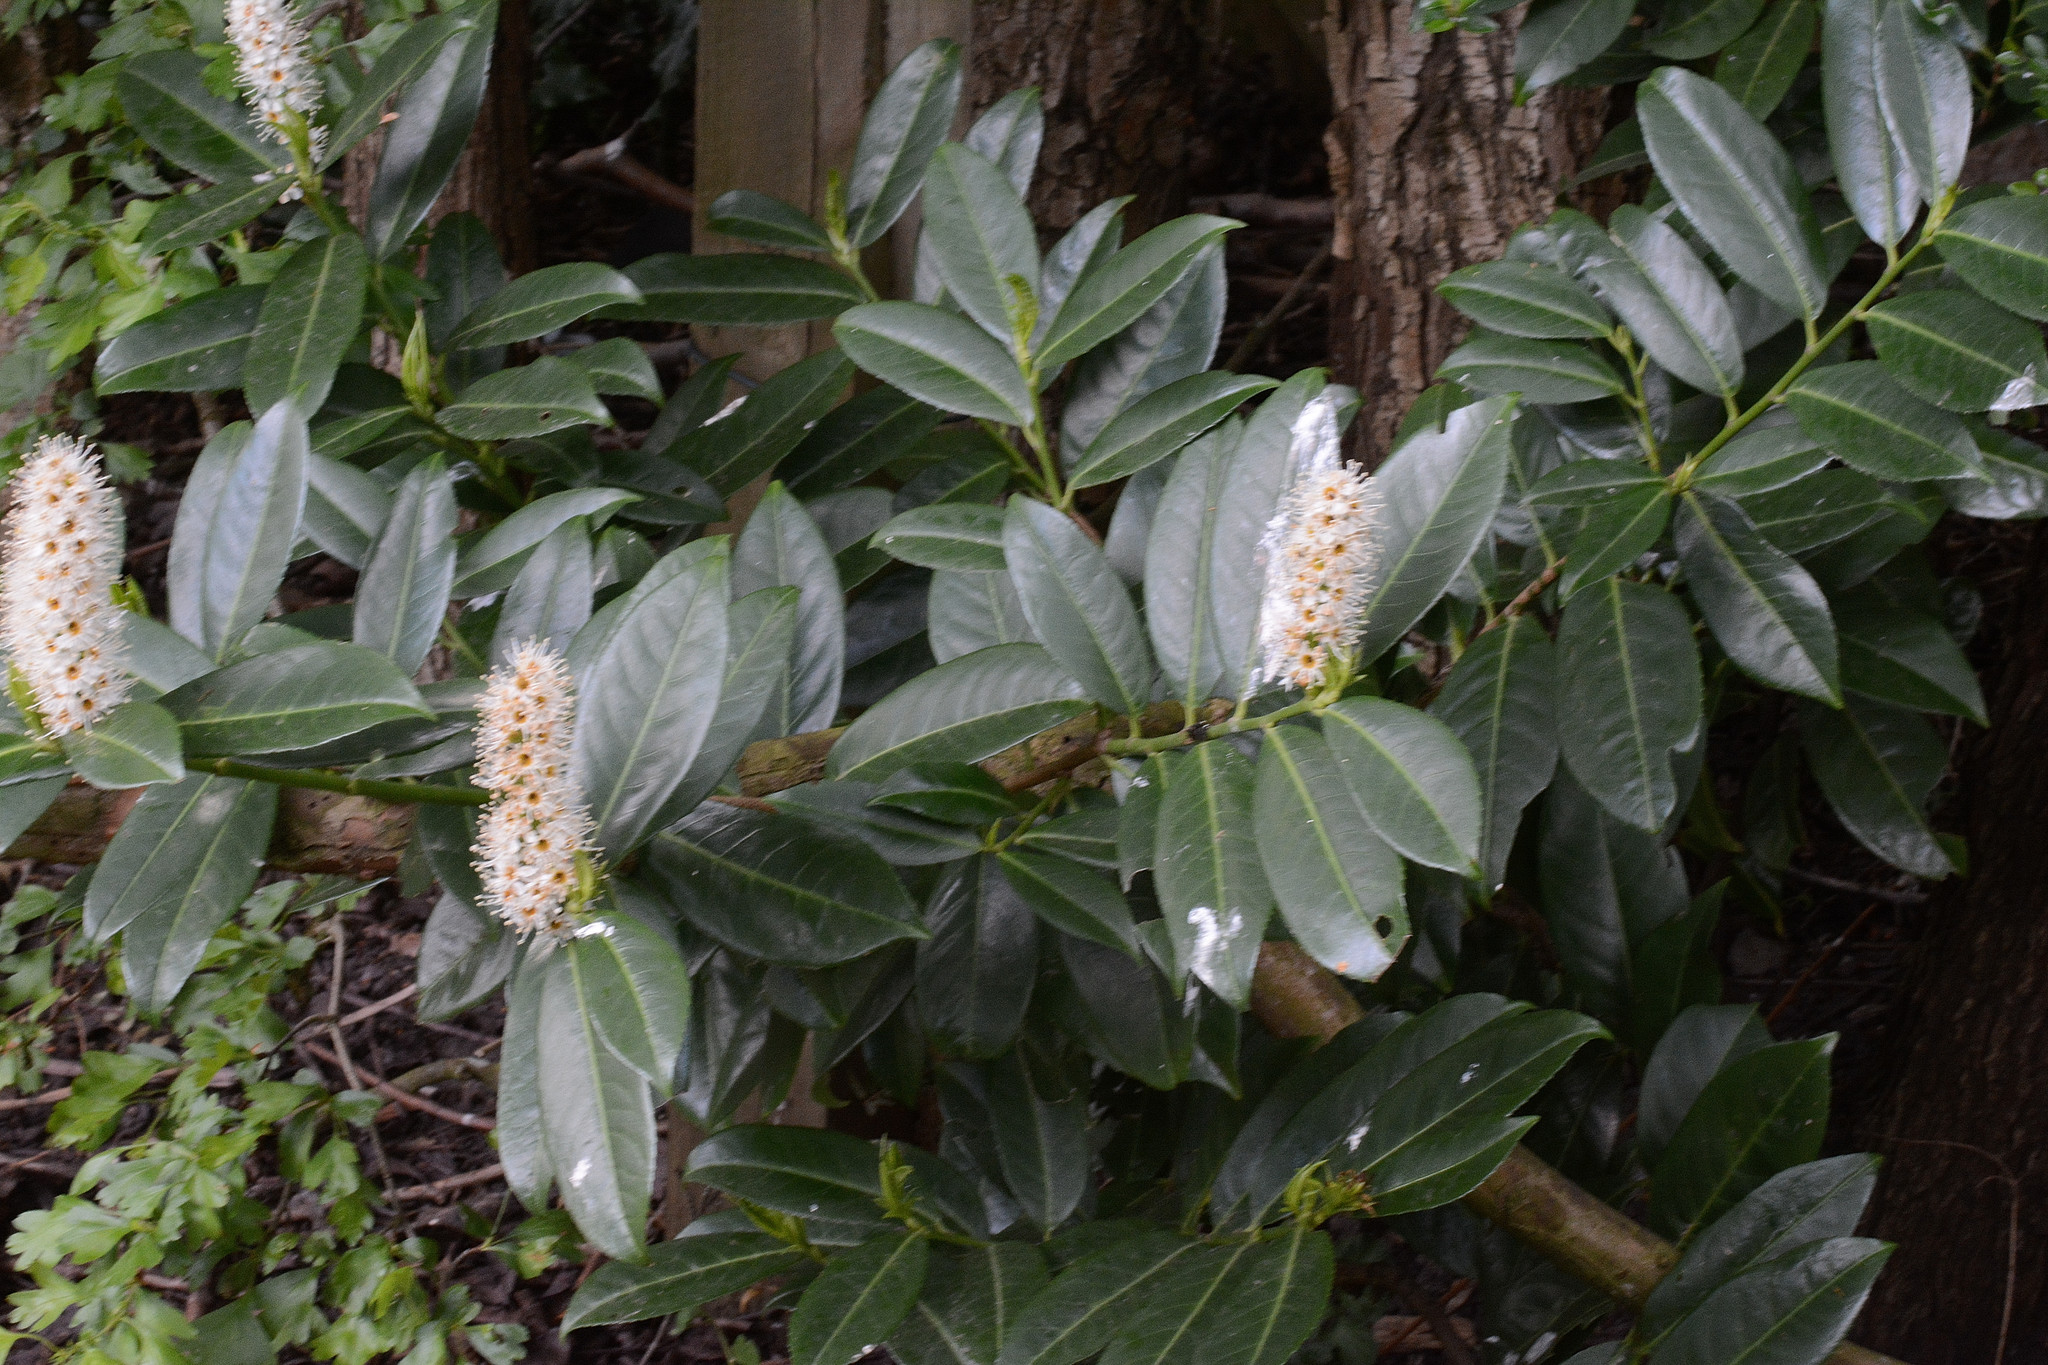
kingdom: Plantae
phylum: Tracheophyta
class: Magnoliopsida
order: Rosales
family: Rosaceae
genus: Prunus
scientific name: Prunus laurocerasus
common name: Cherry laurel
